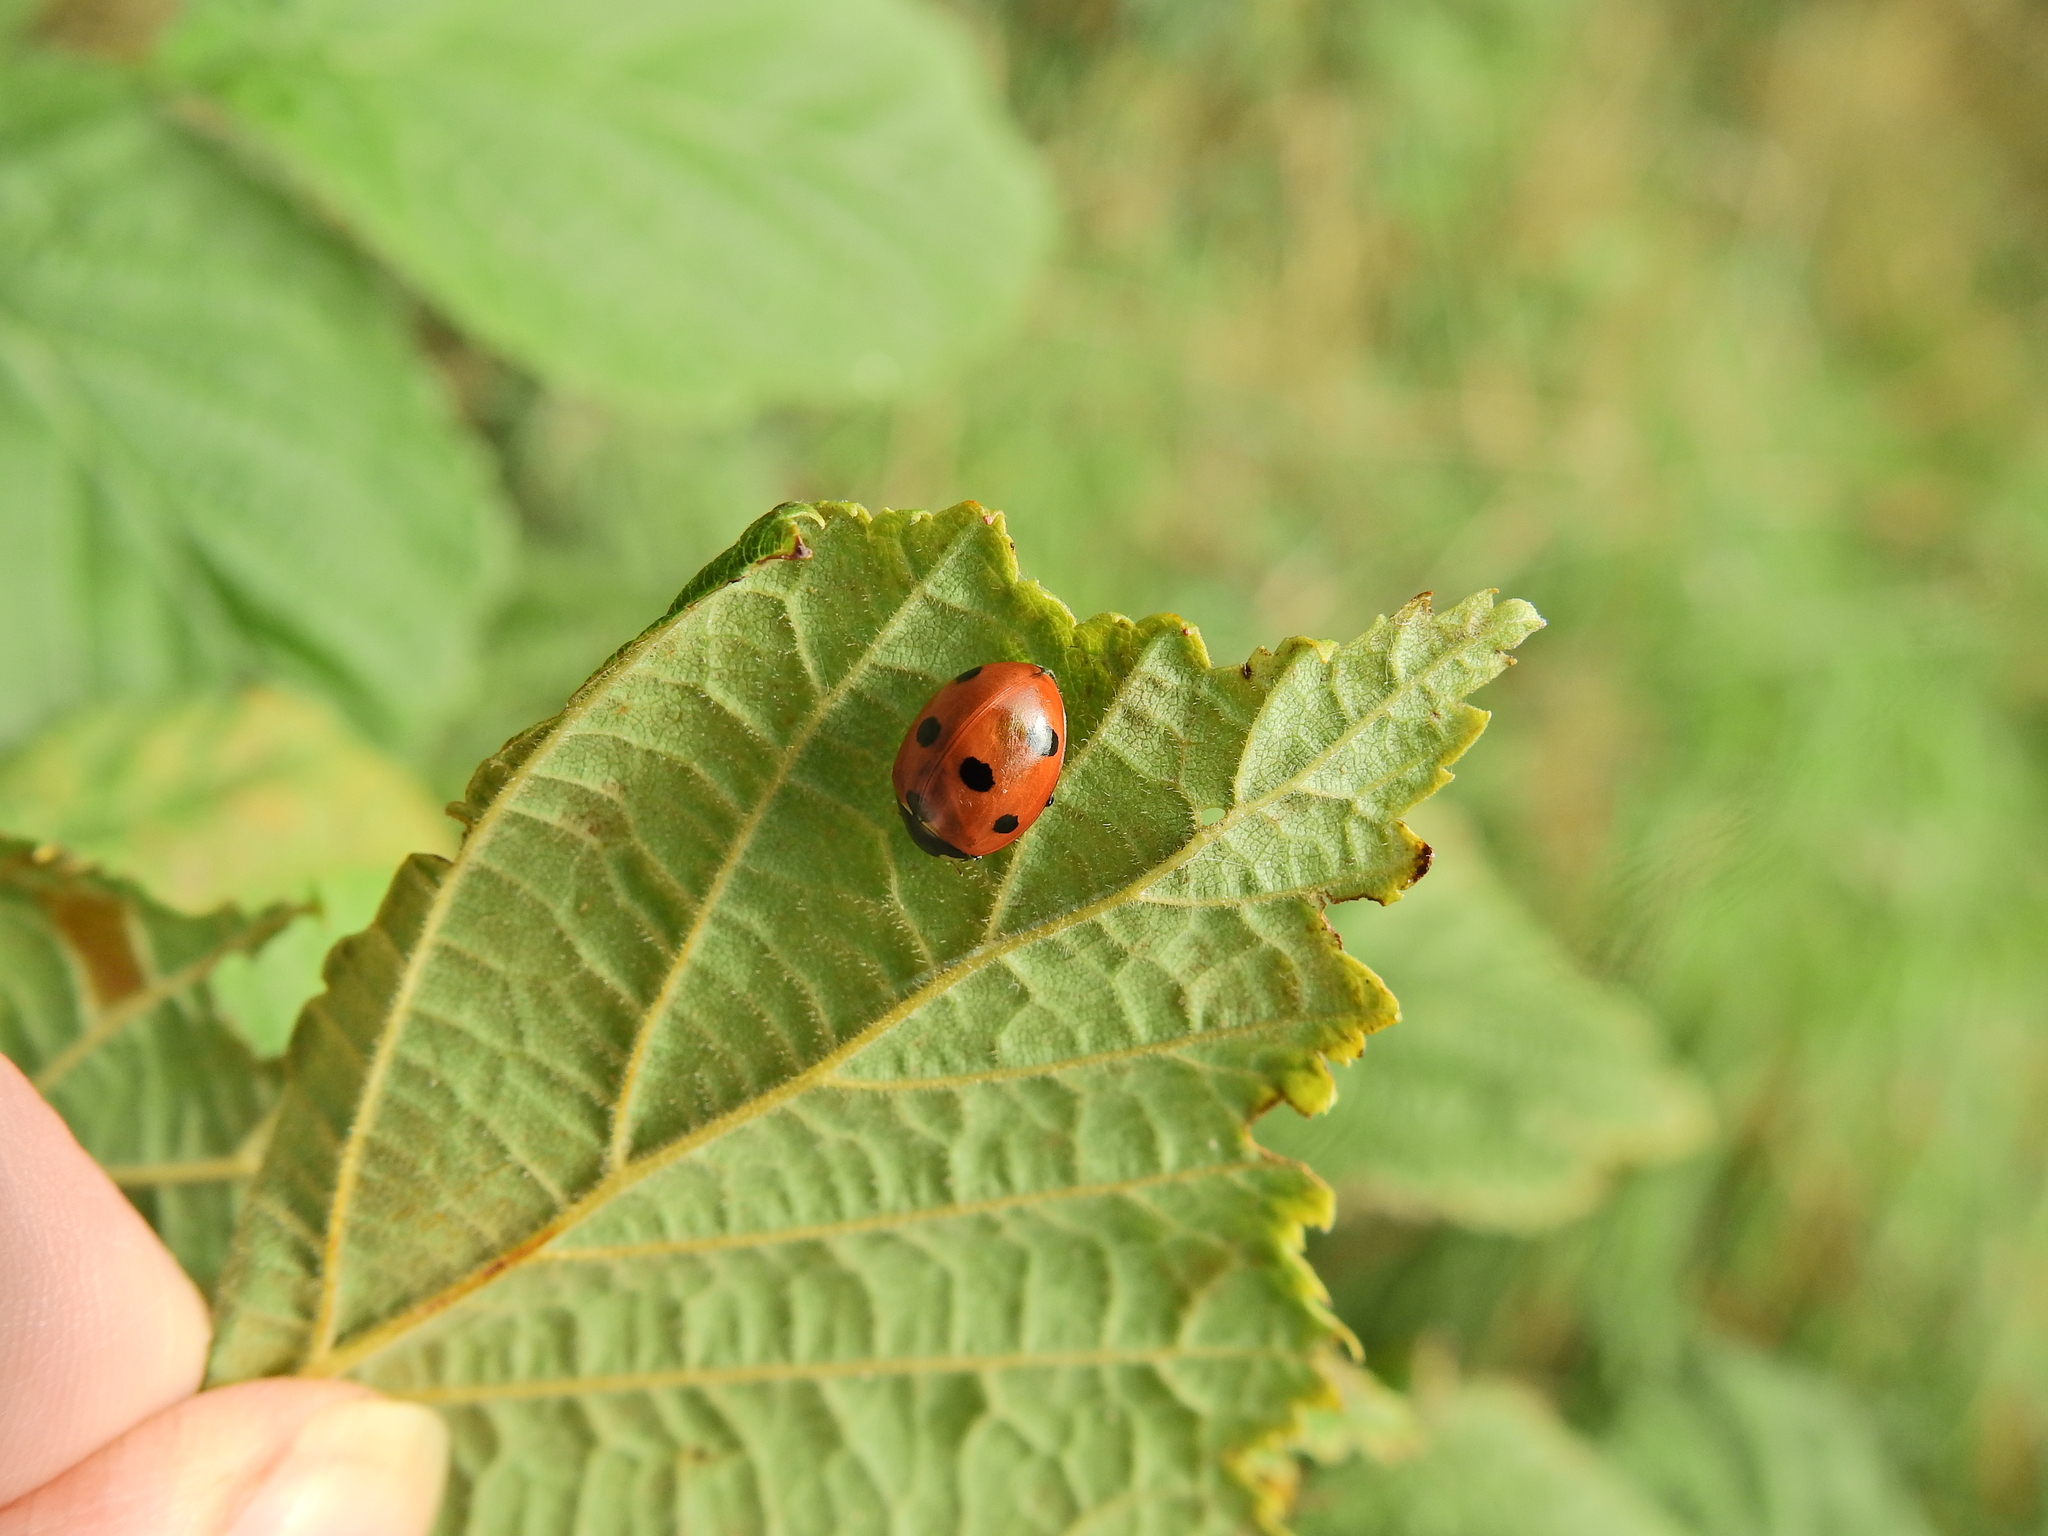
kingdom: Animalia
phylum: Arthropoda
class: Insecta
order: Coleoptera
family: Coccinellidae
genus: Coccinella
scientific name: Coccinella septempunctata
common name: Sevenspotted lady beetle
